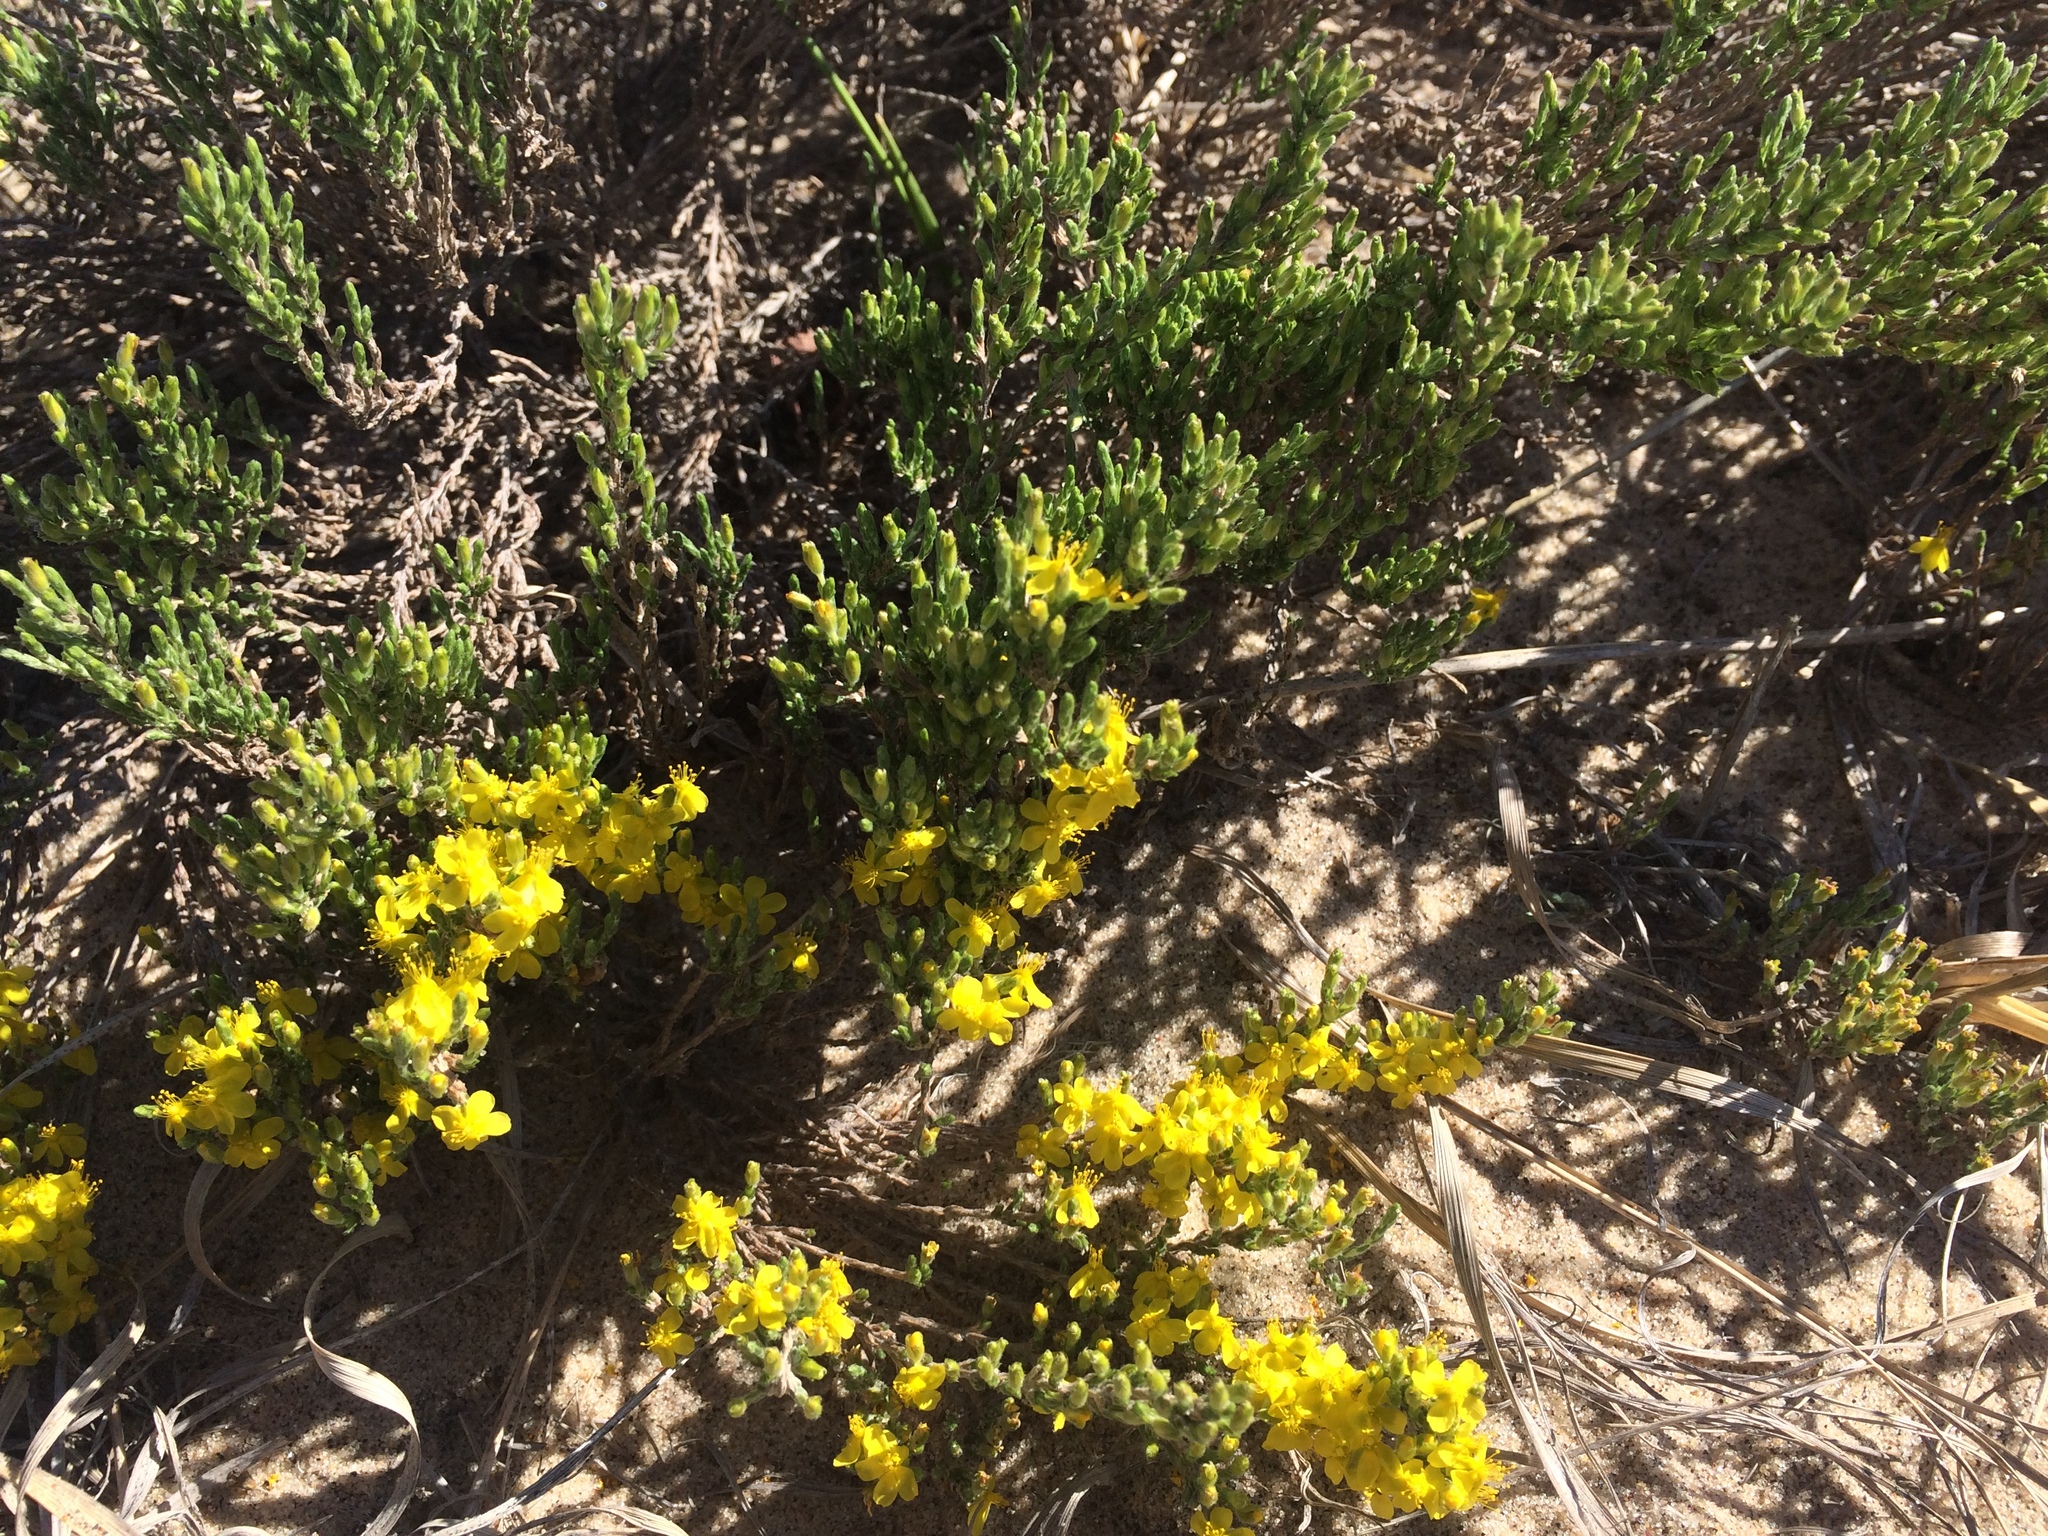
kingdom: Plantae
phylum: Tracheophyta
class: Magnoliopsida
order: Malvales
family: Cistaceae
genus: Hudsonia
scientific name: Hudsonia tomentosa
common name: Beach-heath
